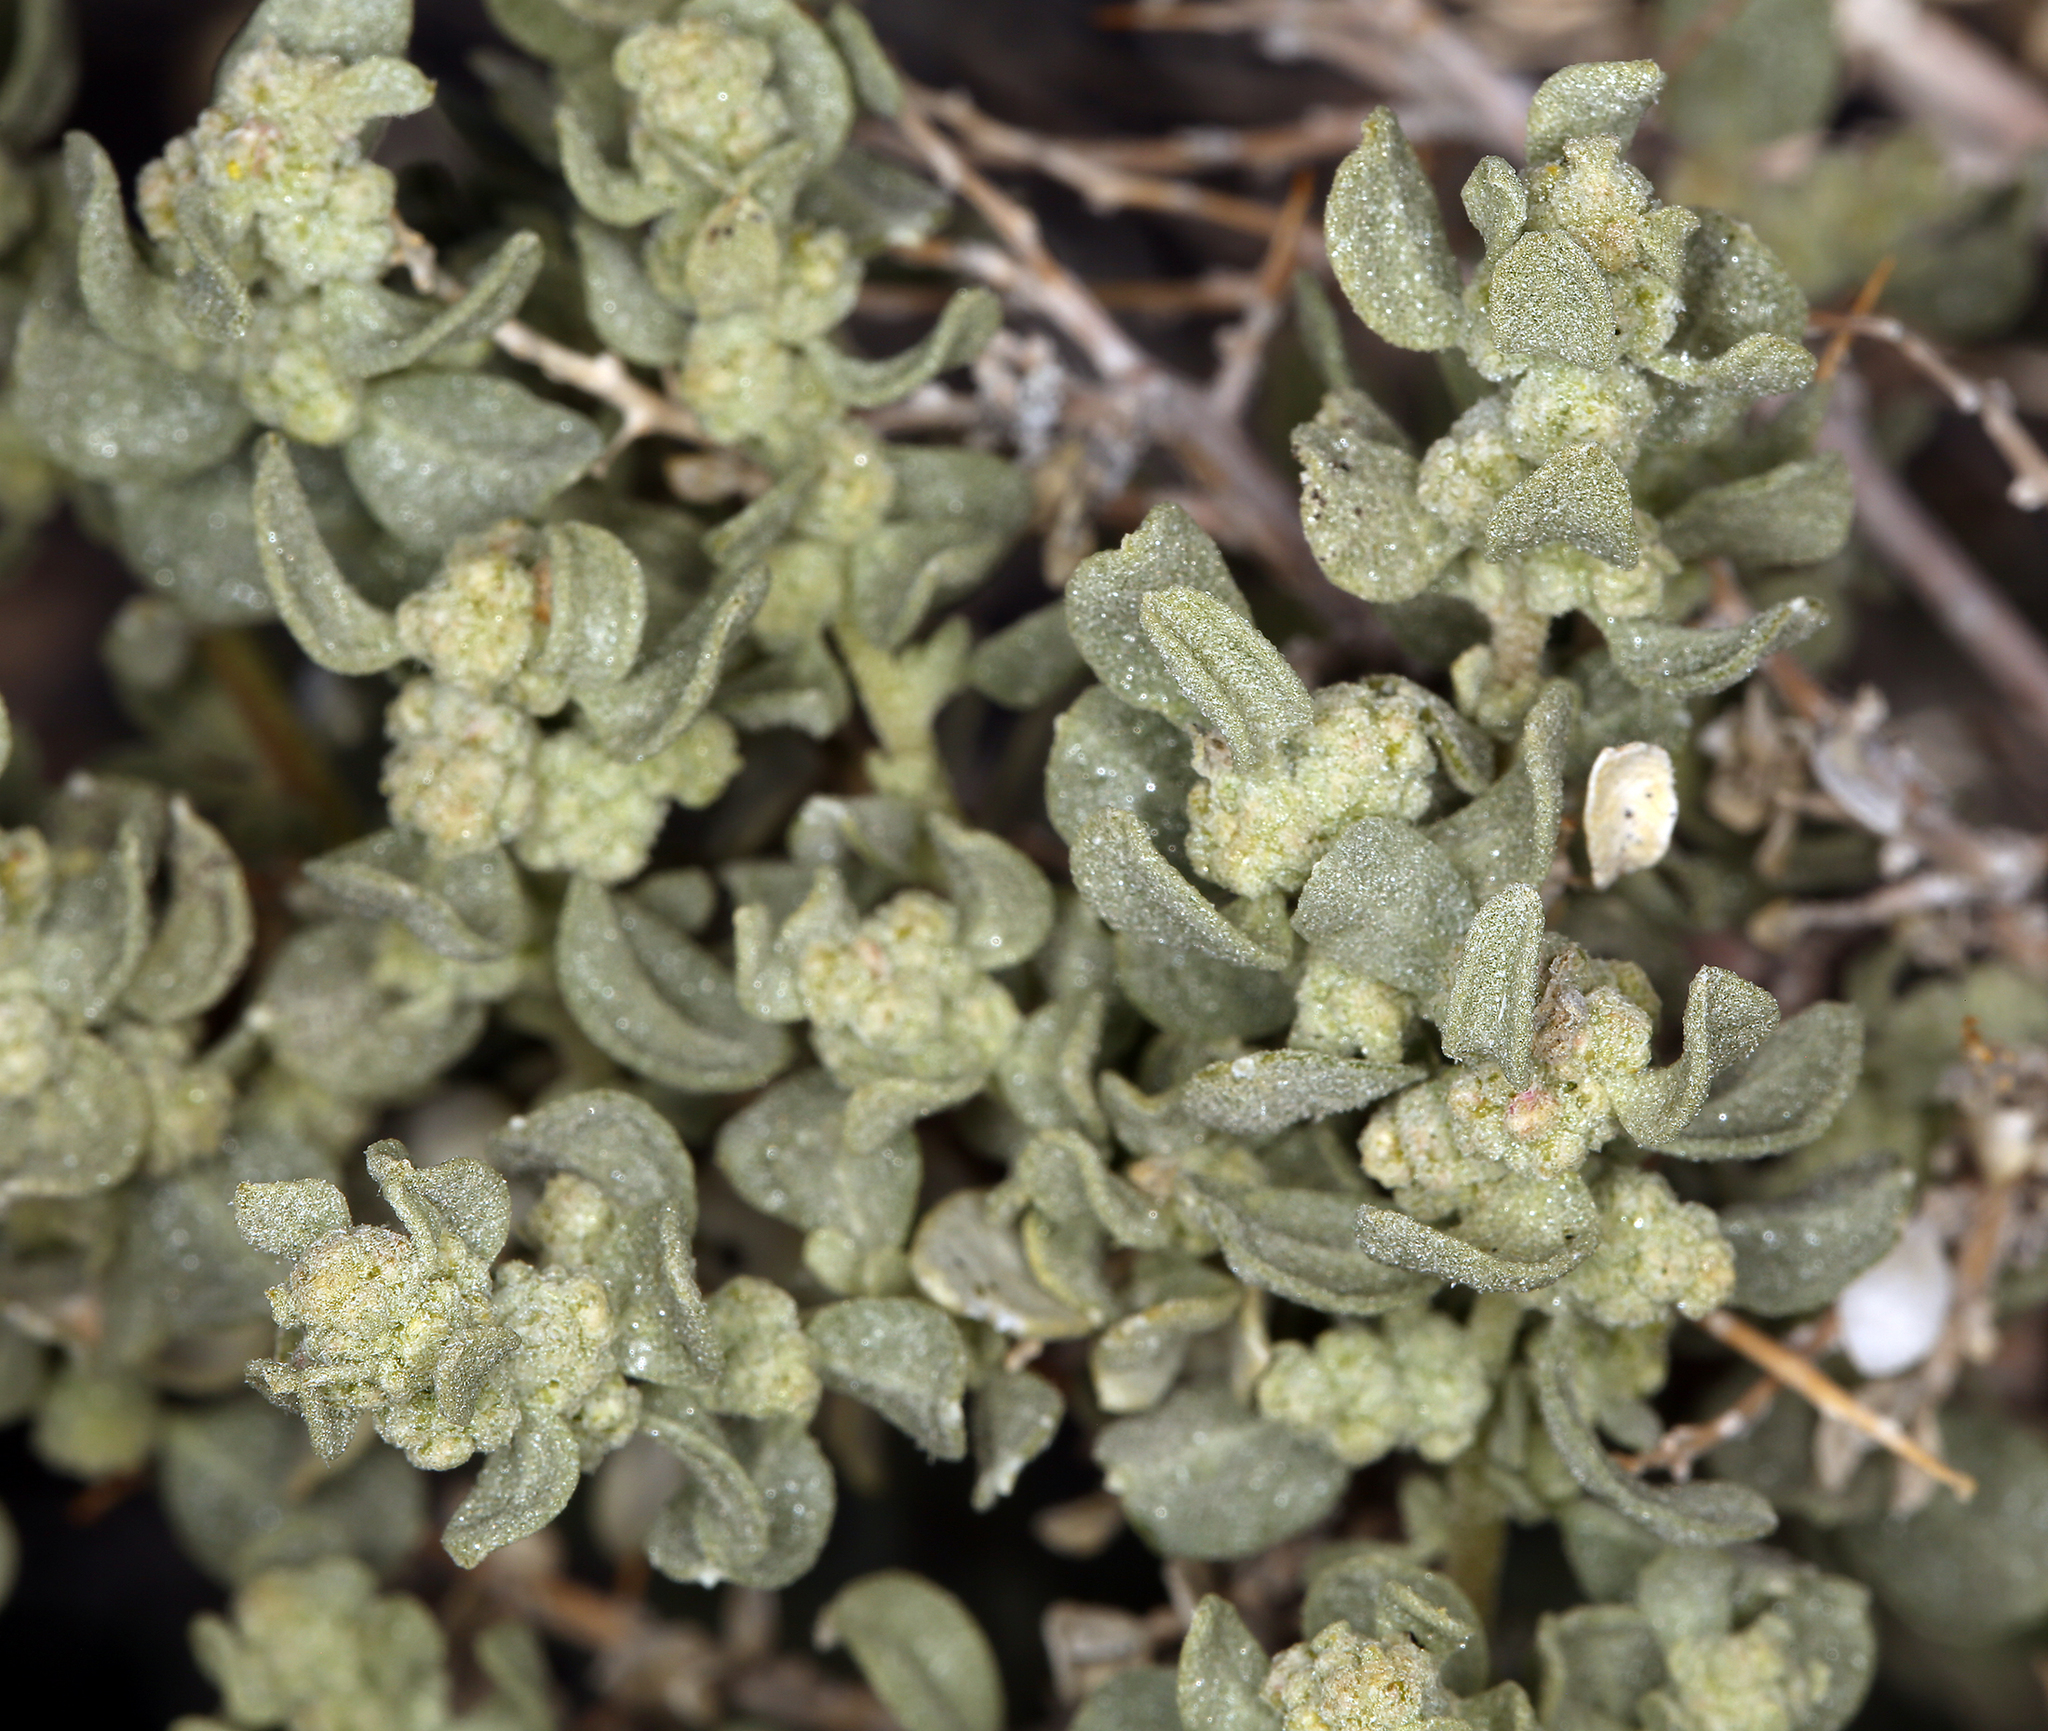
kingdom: Plantae
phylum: Tracheophyta
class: Magnoliopsida
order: Caryophyllales
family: Amaranthaceae
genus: Atriplex
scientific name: Atriplex confertifolia
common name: Shadscale
